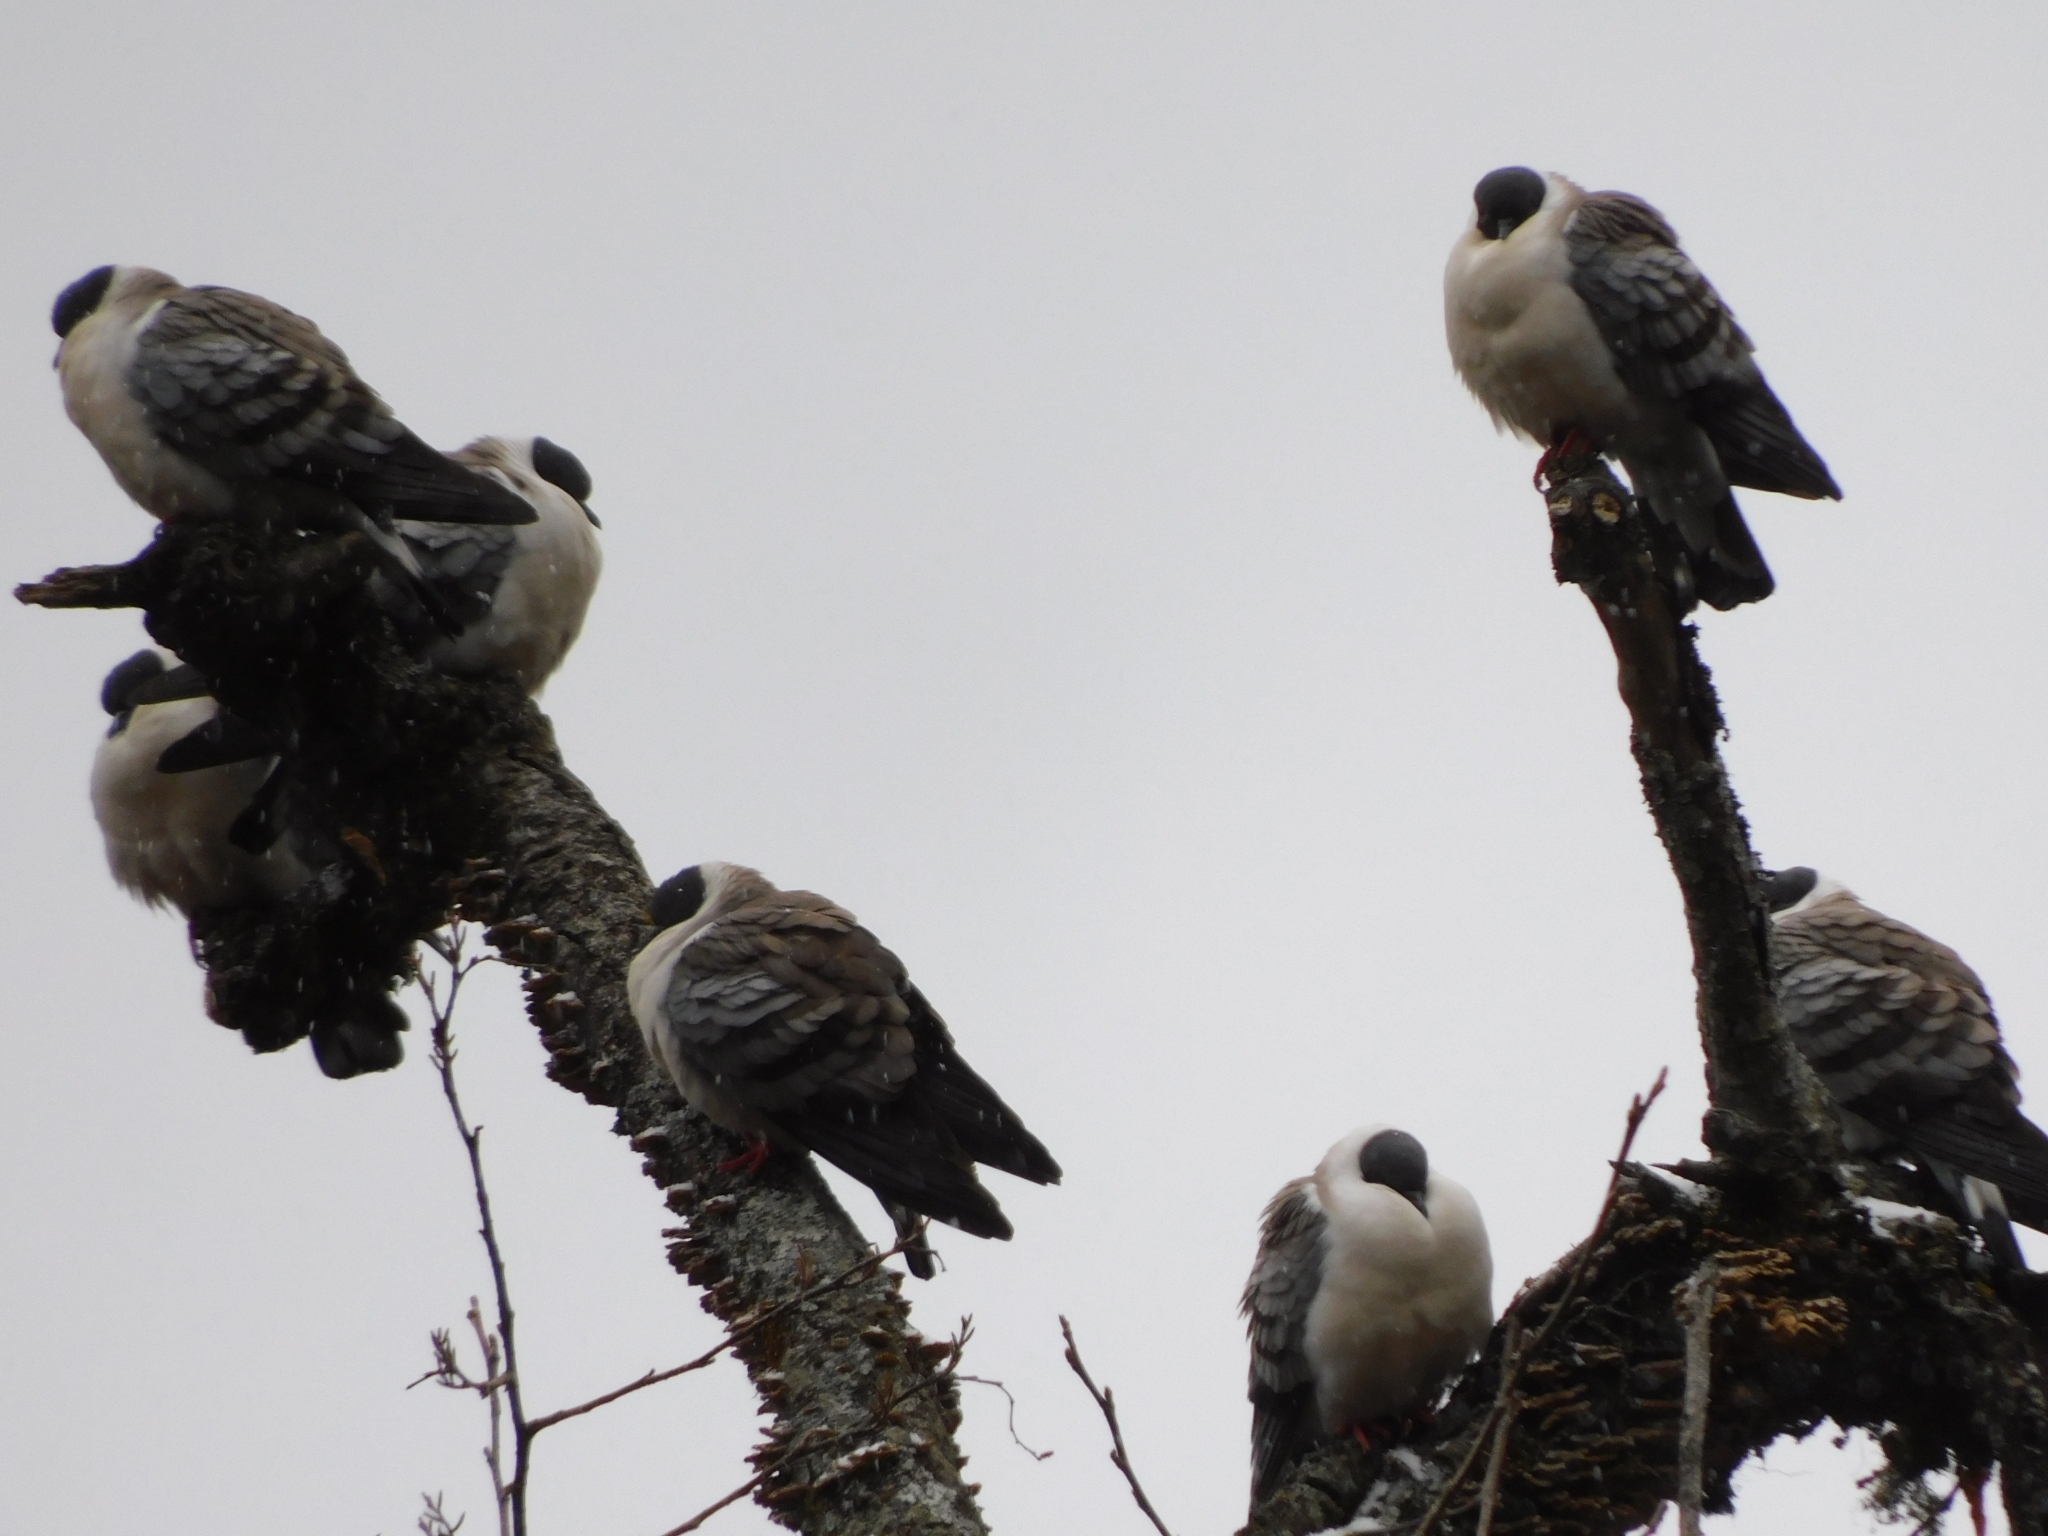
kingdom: Animalia
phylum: Chordata
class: Aves
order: Columbiformes
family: Columbidae
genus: Columba
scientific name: Columba leuconota
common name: Snow pigeon
